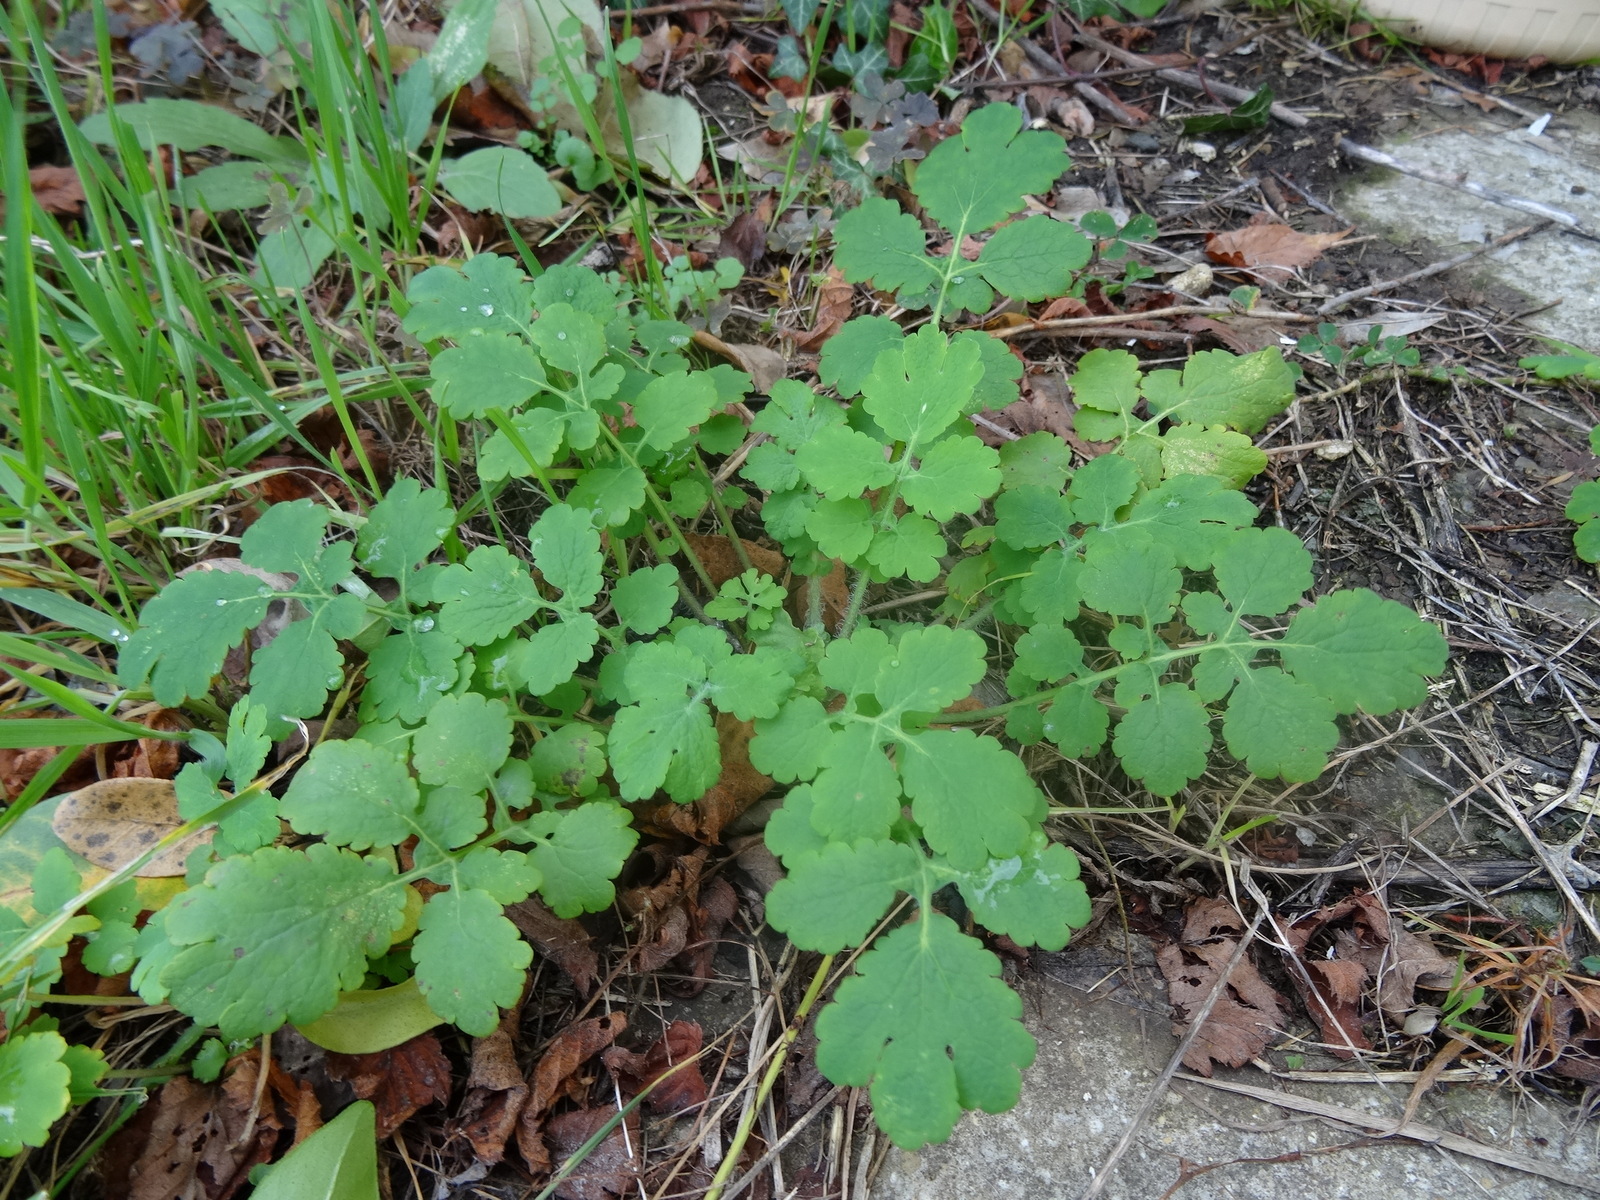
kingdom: Plantae
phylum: Tracheophyta
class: Magnoliopsida
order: Ranunculales
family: Papaveraceae
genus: Chelidonium
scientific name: Chelidonium majus
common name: Greater celandine
